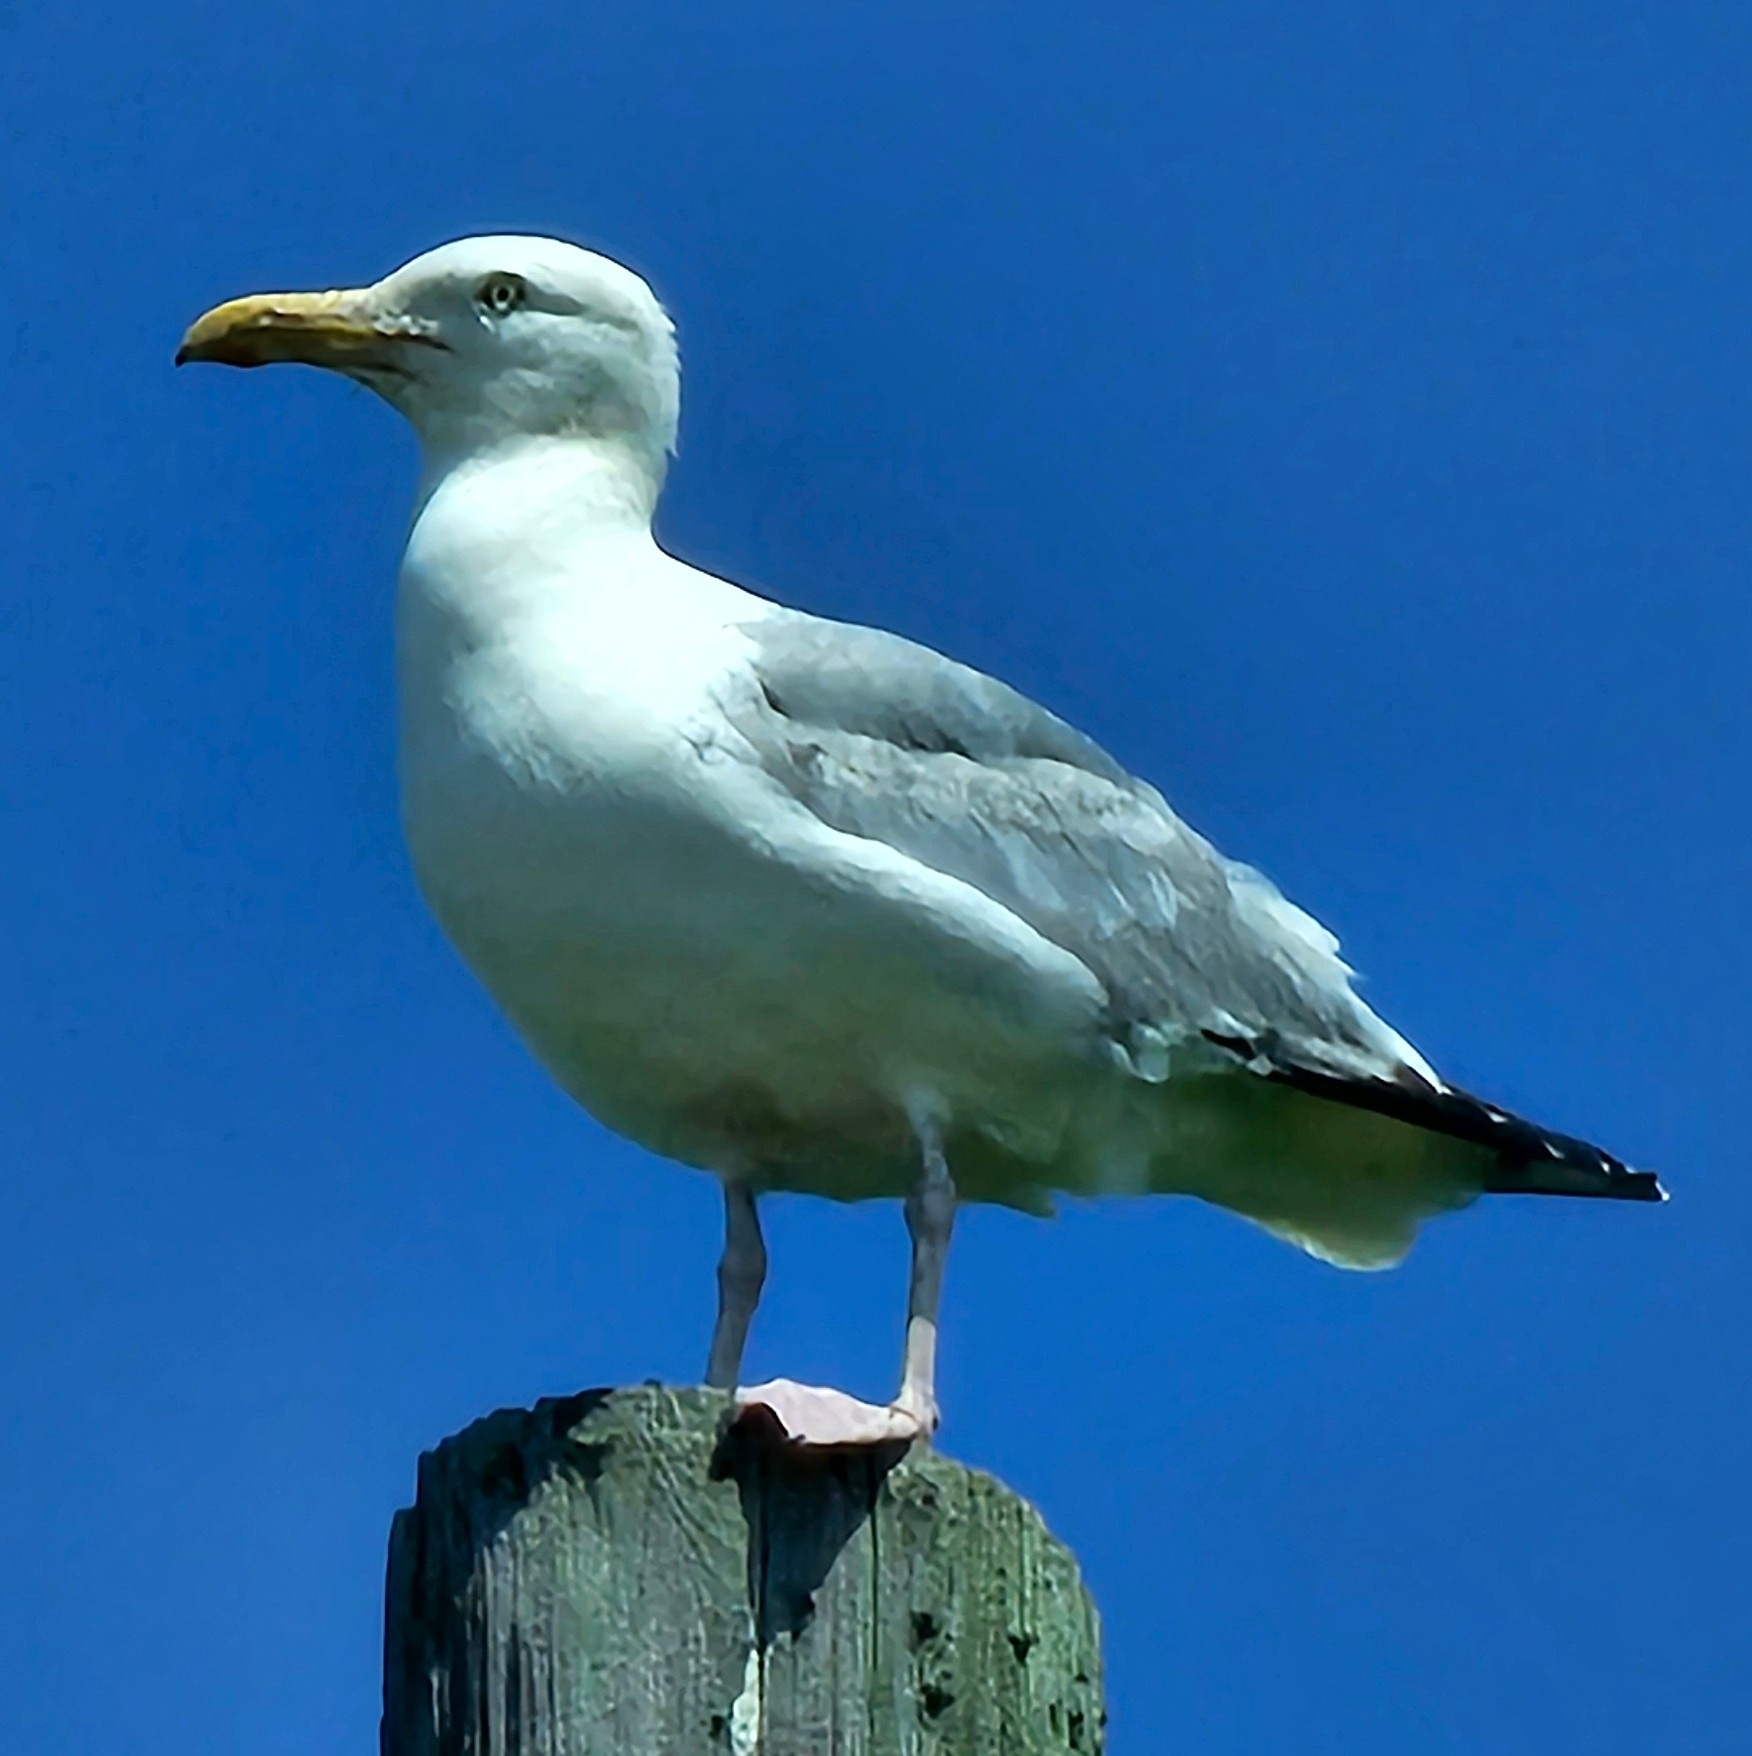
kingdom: Animalia
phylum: Chordata
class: Aves
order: Charadriiformes
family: Laridae
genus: Larus
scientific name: Larus argentatus
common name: Herring gull
